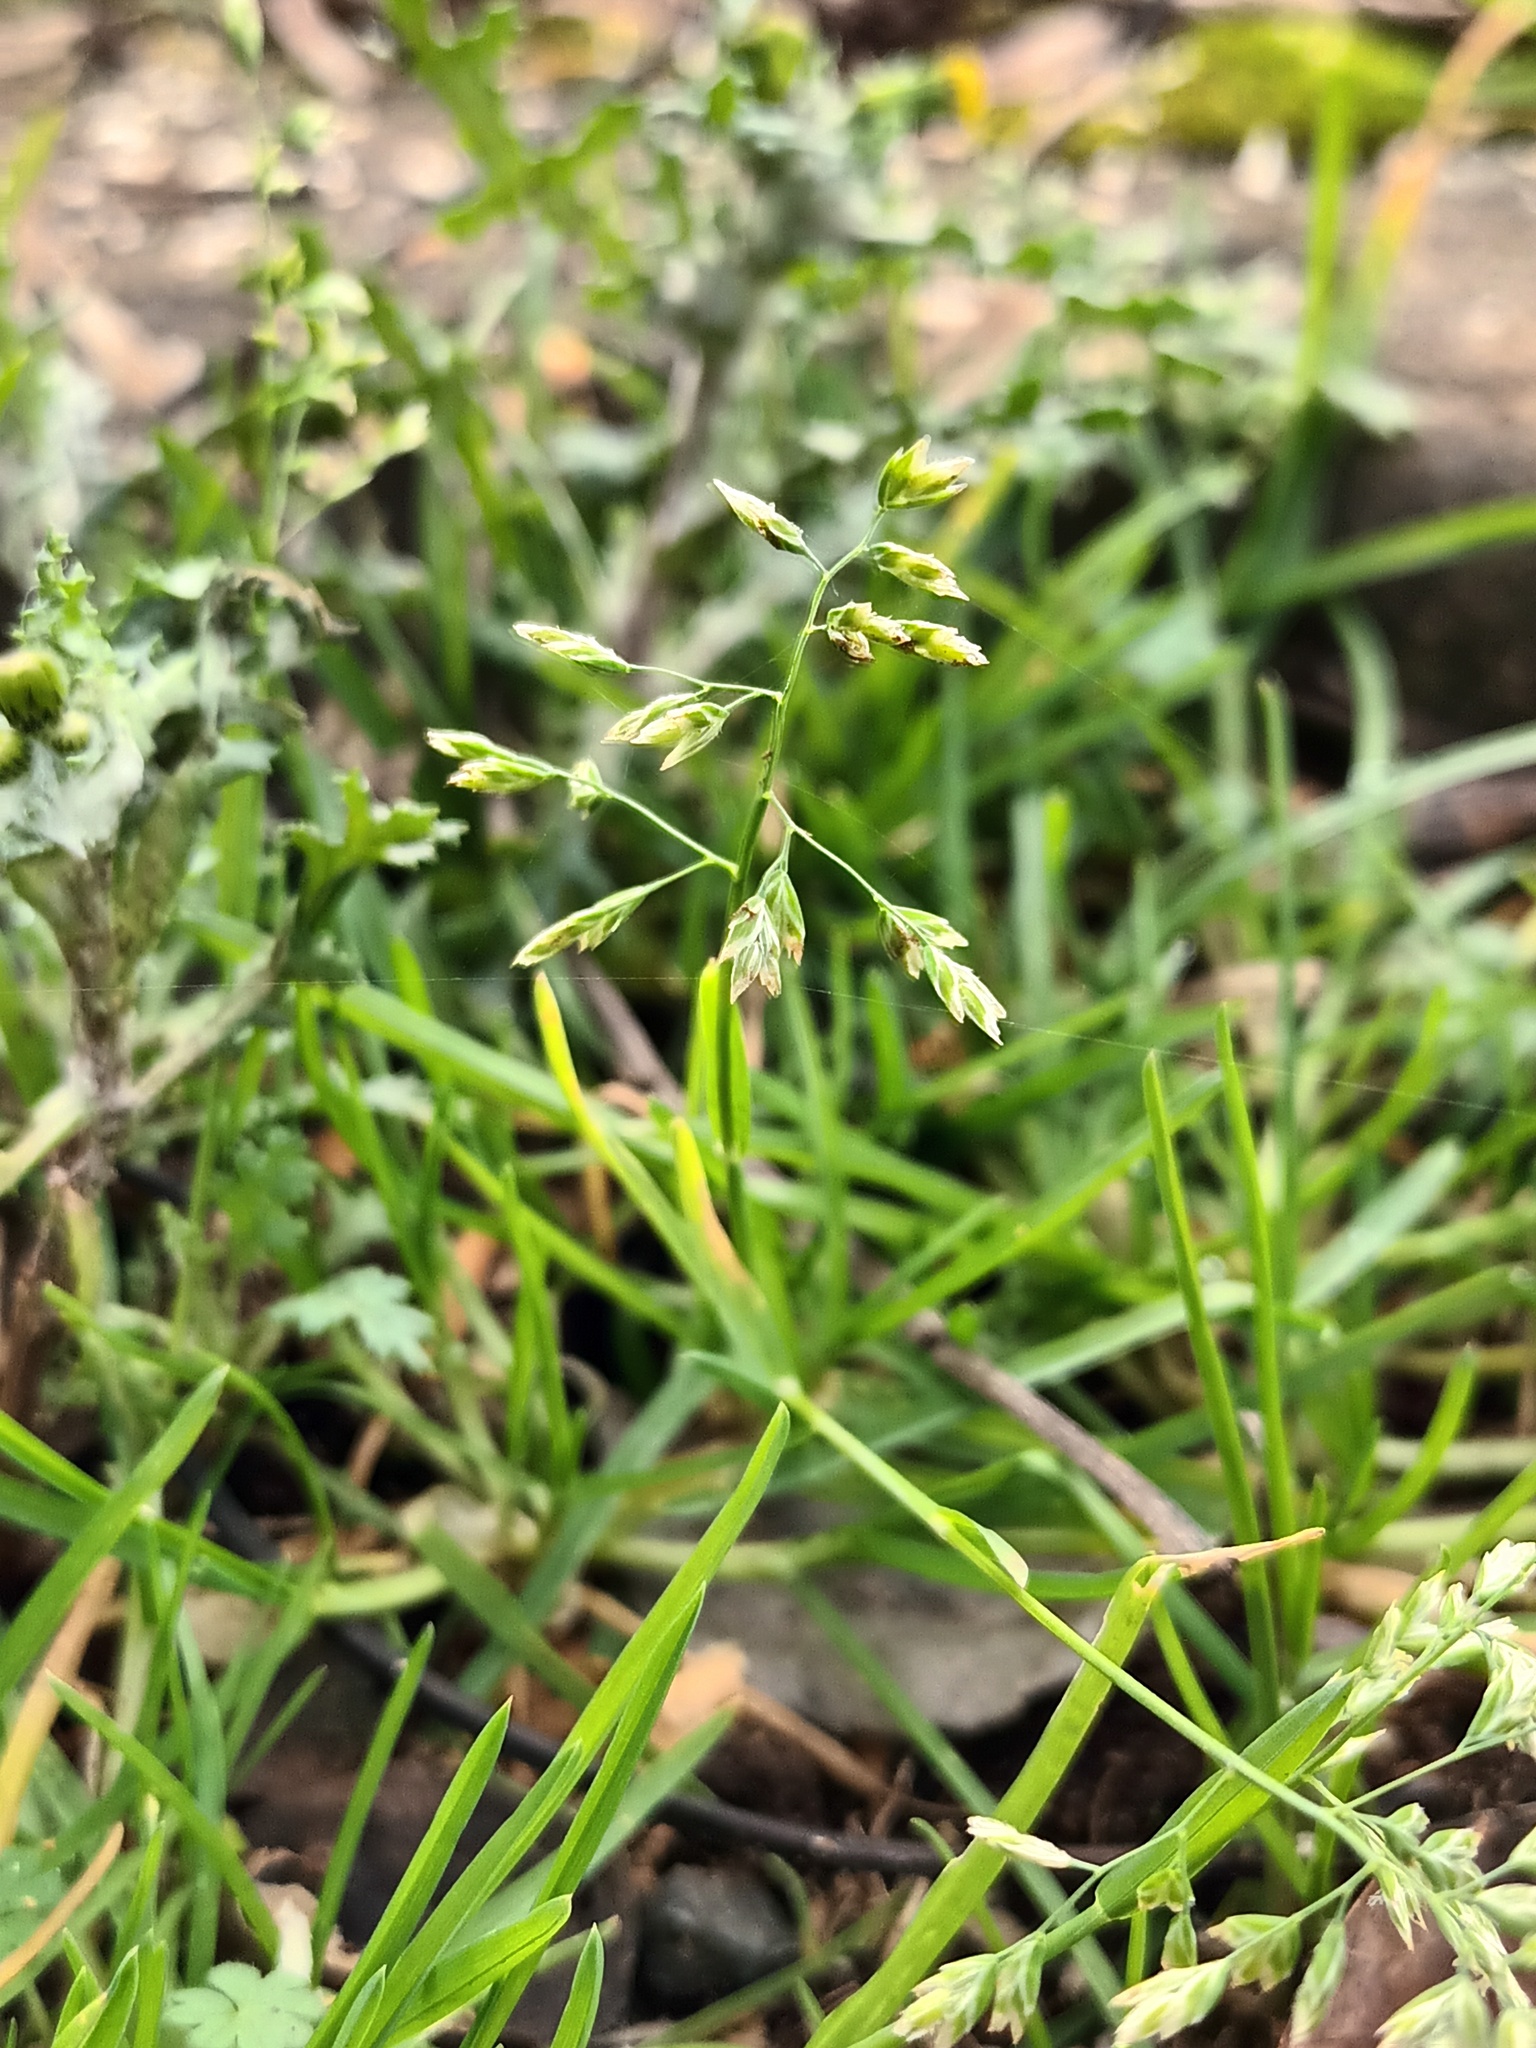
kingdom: Plantae
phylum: Tracheophyta
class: Liliopsida
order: Poales
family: Poaceae
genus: Poa
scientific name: Poa annua
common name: Annual bluegrass
